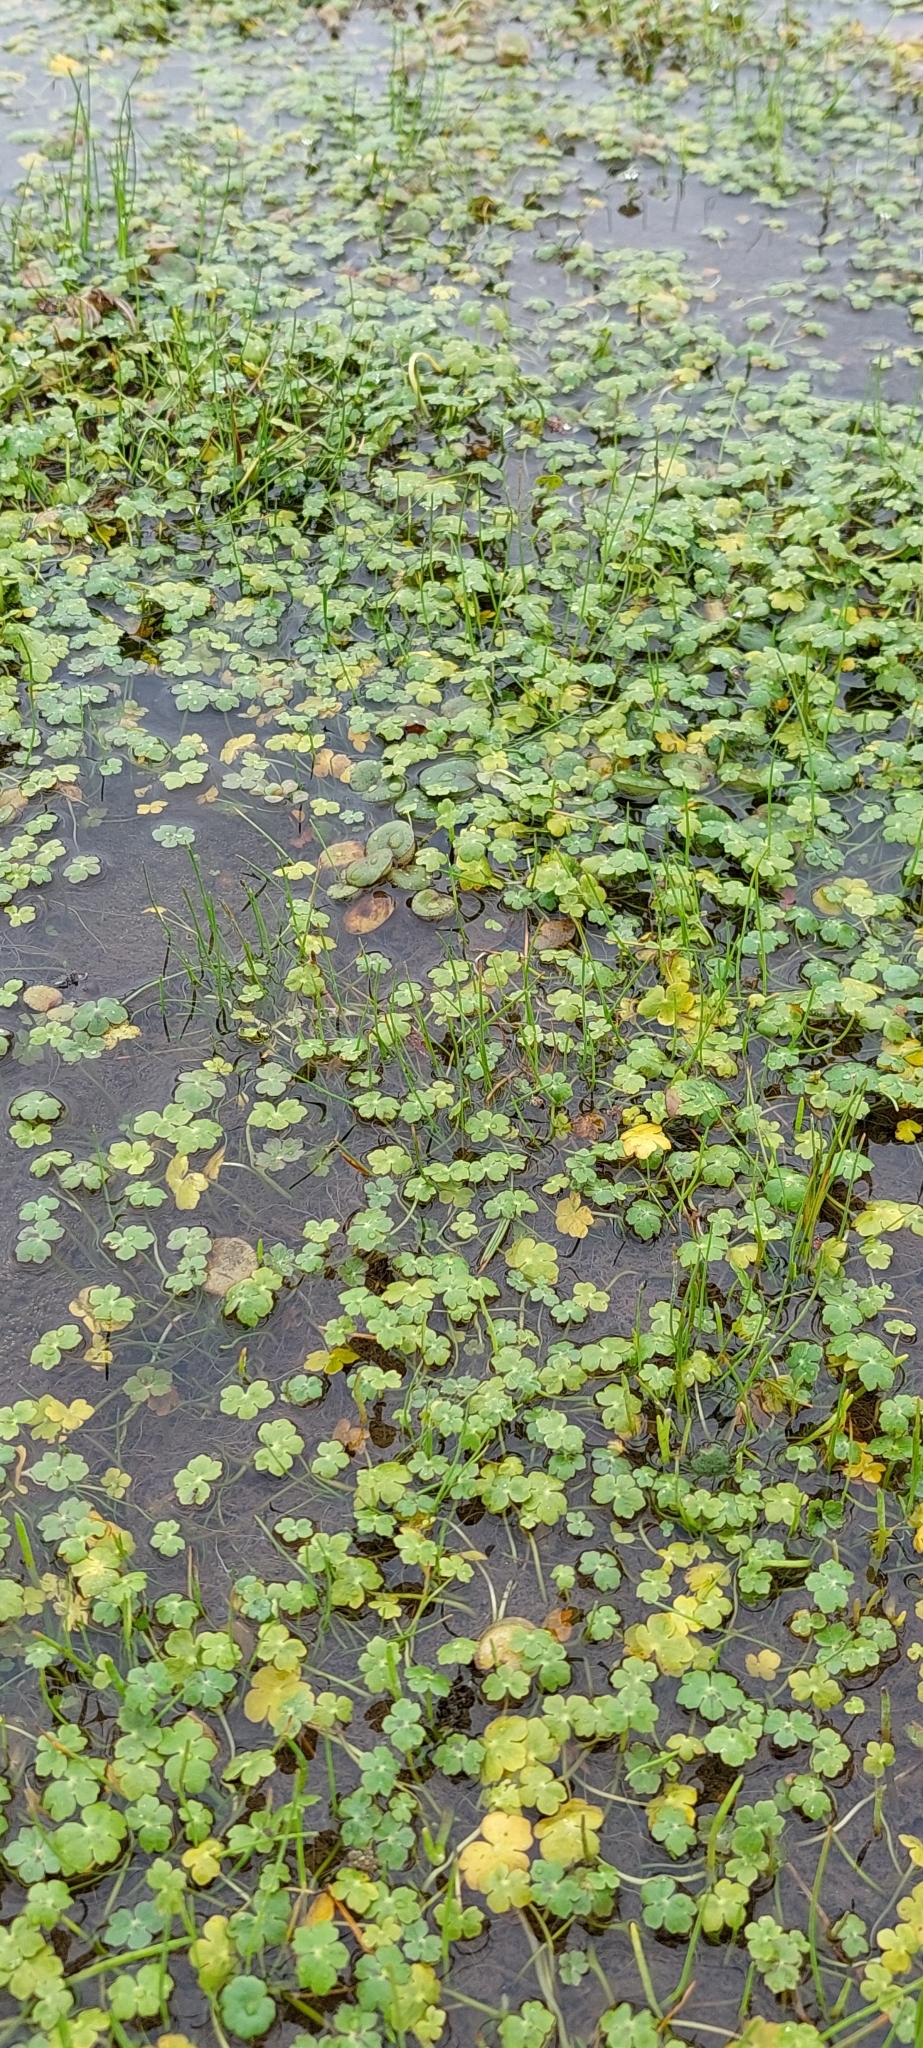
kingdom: Plantae
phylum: Tracheophyta
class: Magnoliopsida
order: Apiales
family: Araliaceae
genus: Hydrocotyle
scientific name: Hydrocotyle ranunculoides
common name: Floating pennywort
